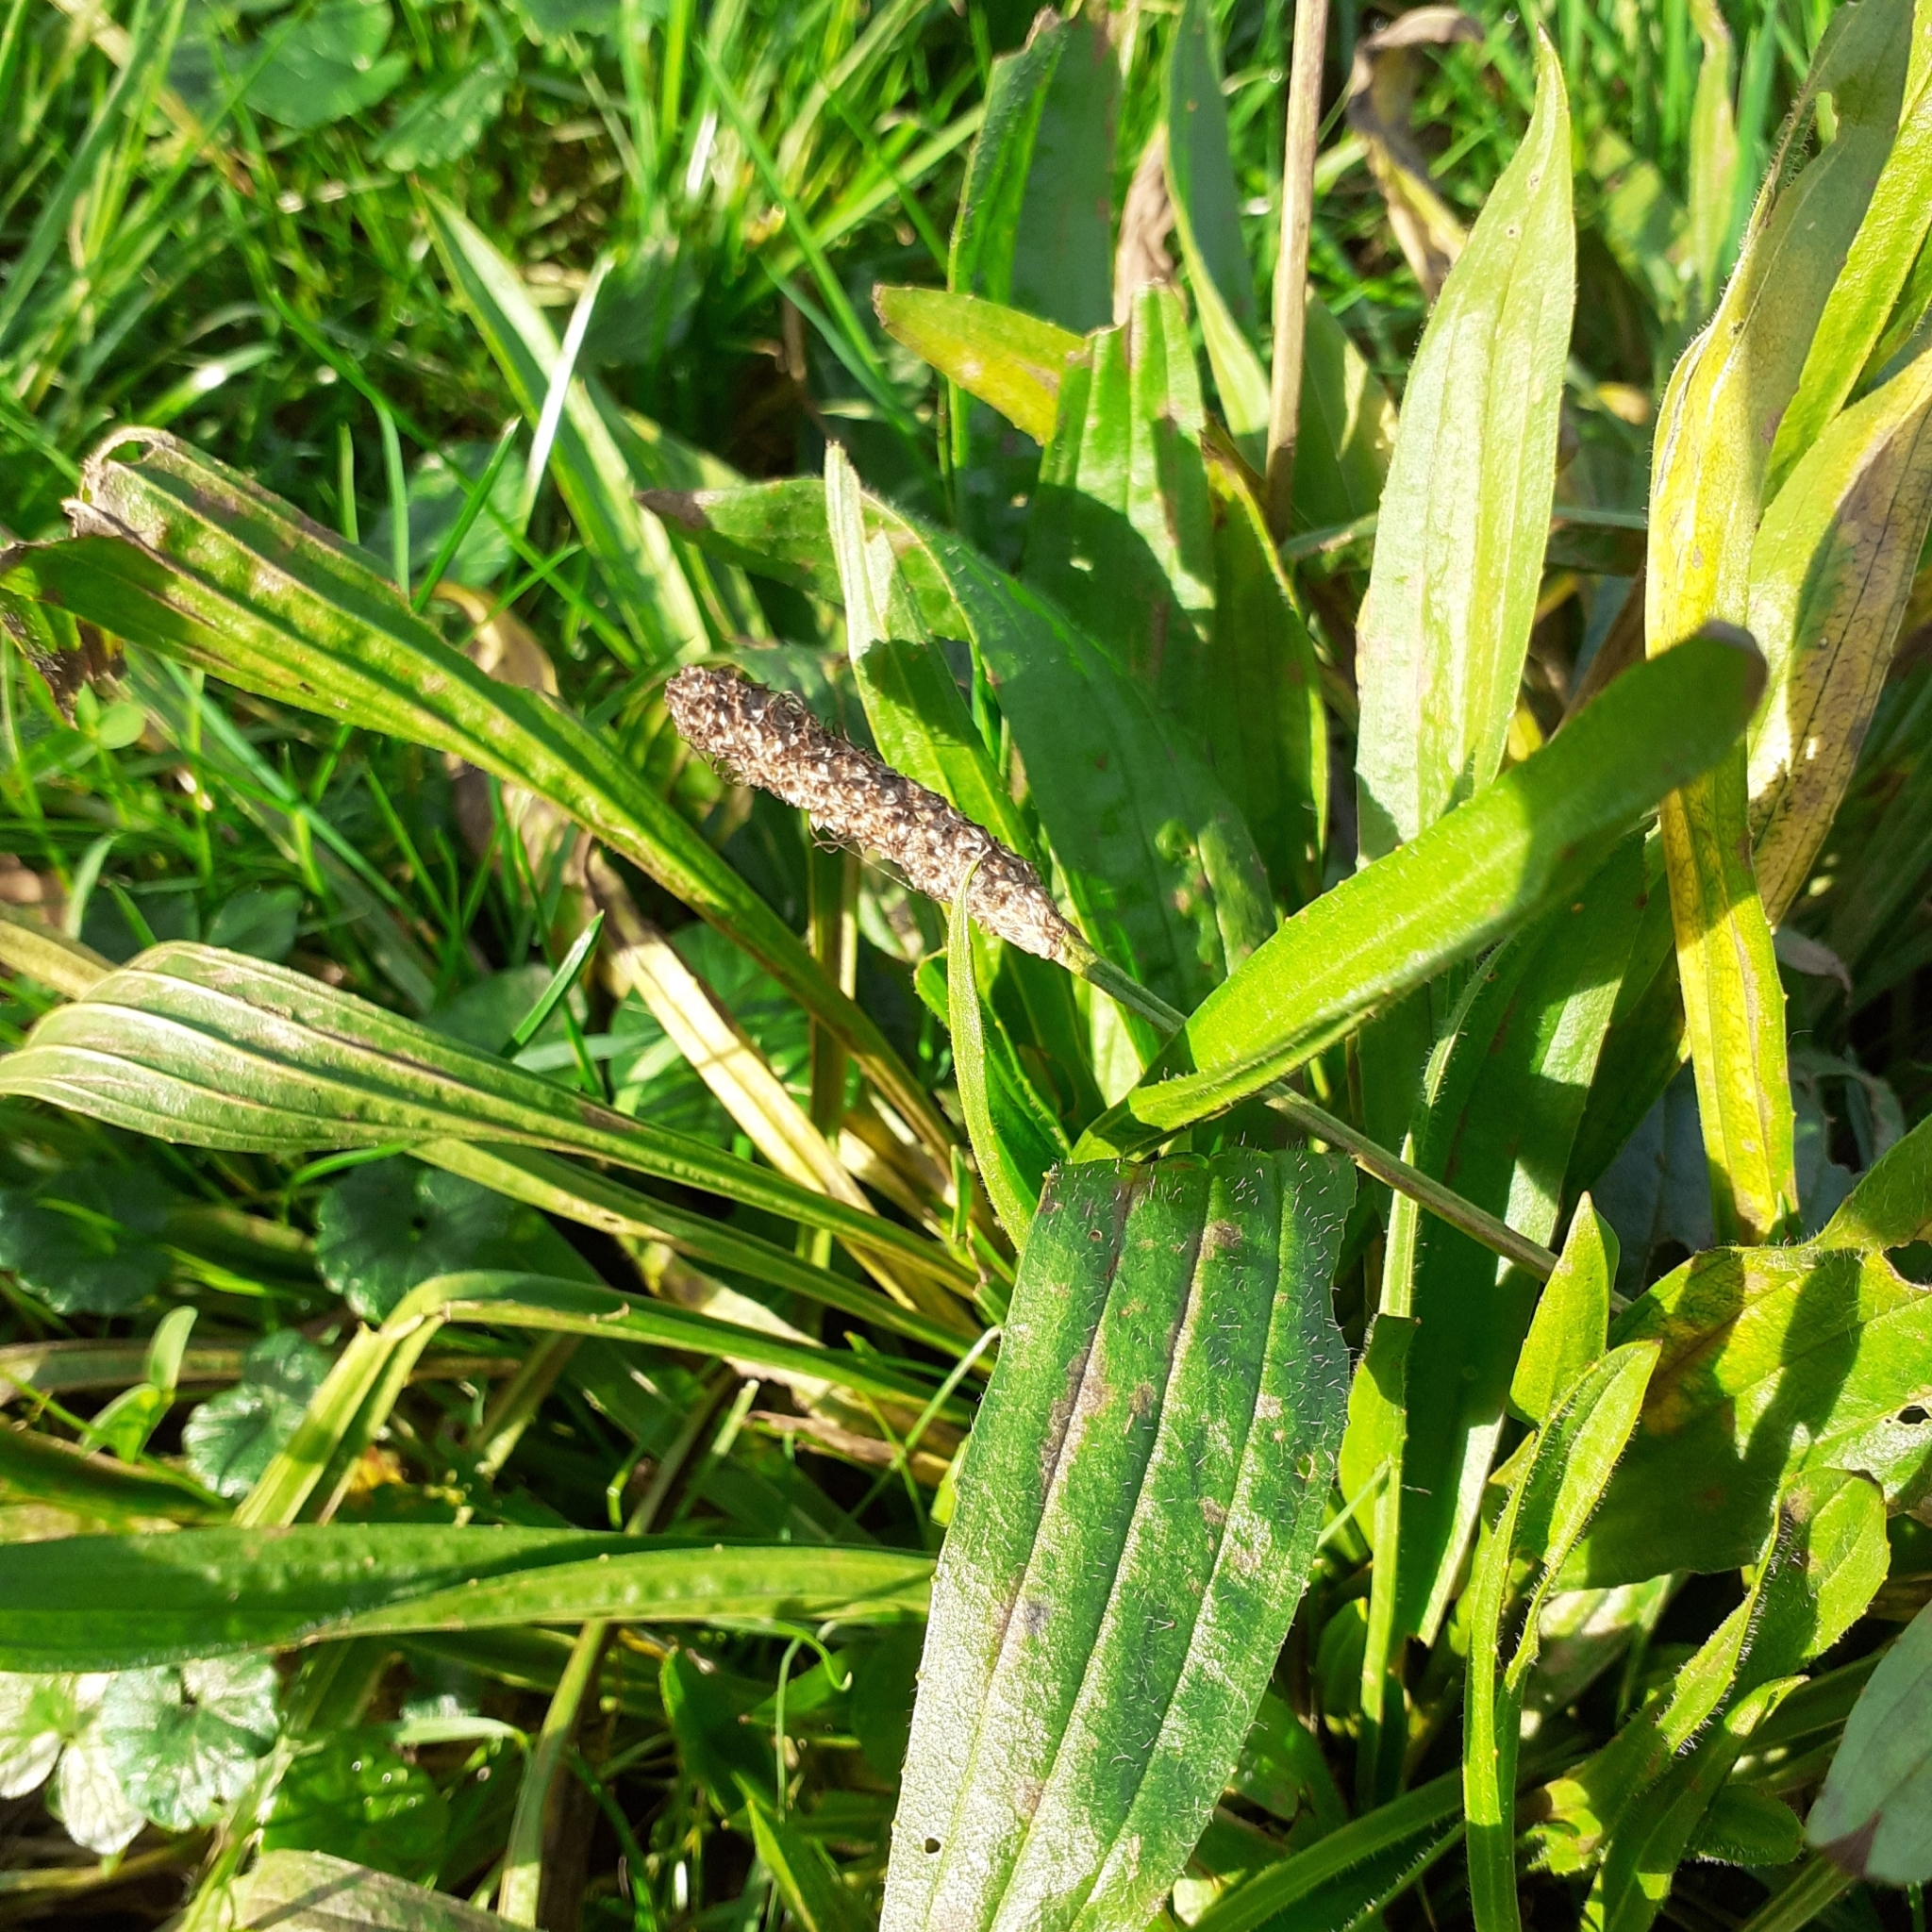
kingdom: Plantae
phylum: Tracheophyta
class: Magnoliopsida
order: Lamiales
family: Plantaginaceae
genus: Plantago
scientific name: Plantago lanceolata
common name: Ribwort plantain
